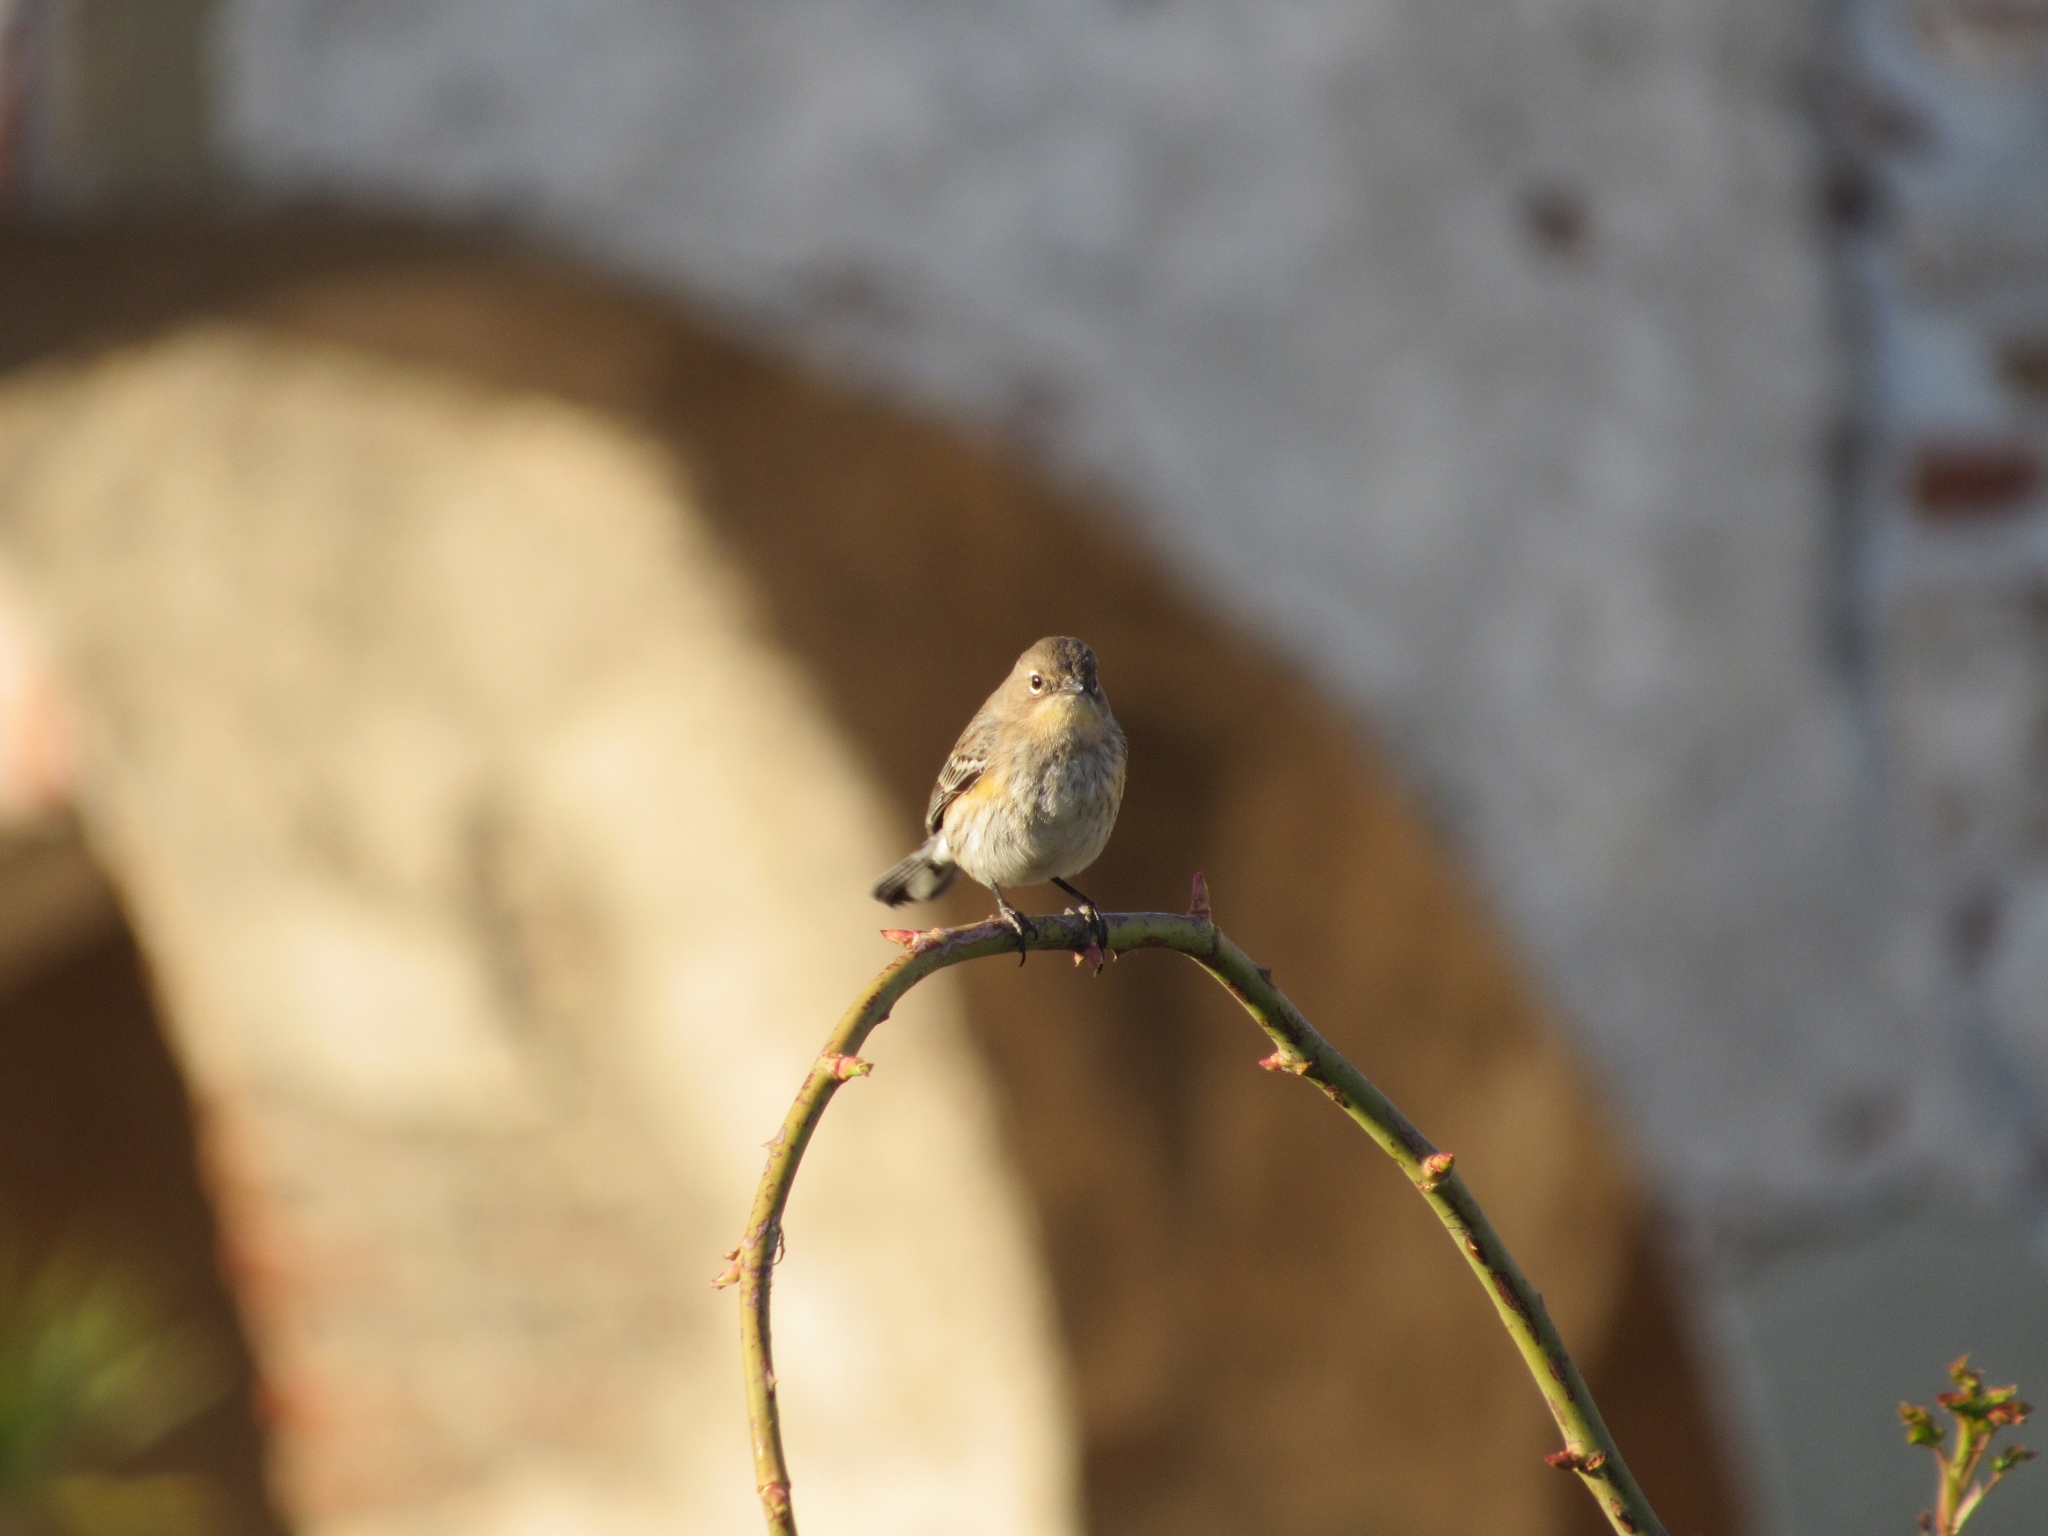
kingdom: Animalia
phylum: Chordata
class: Aves
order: Passeriformes
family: Parulidae
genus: Setophaga
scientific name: Setophaga auduboni
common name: Audubon's warbler
